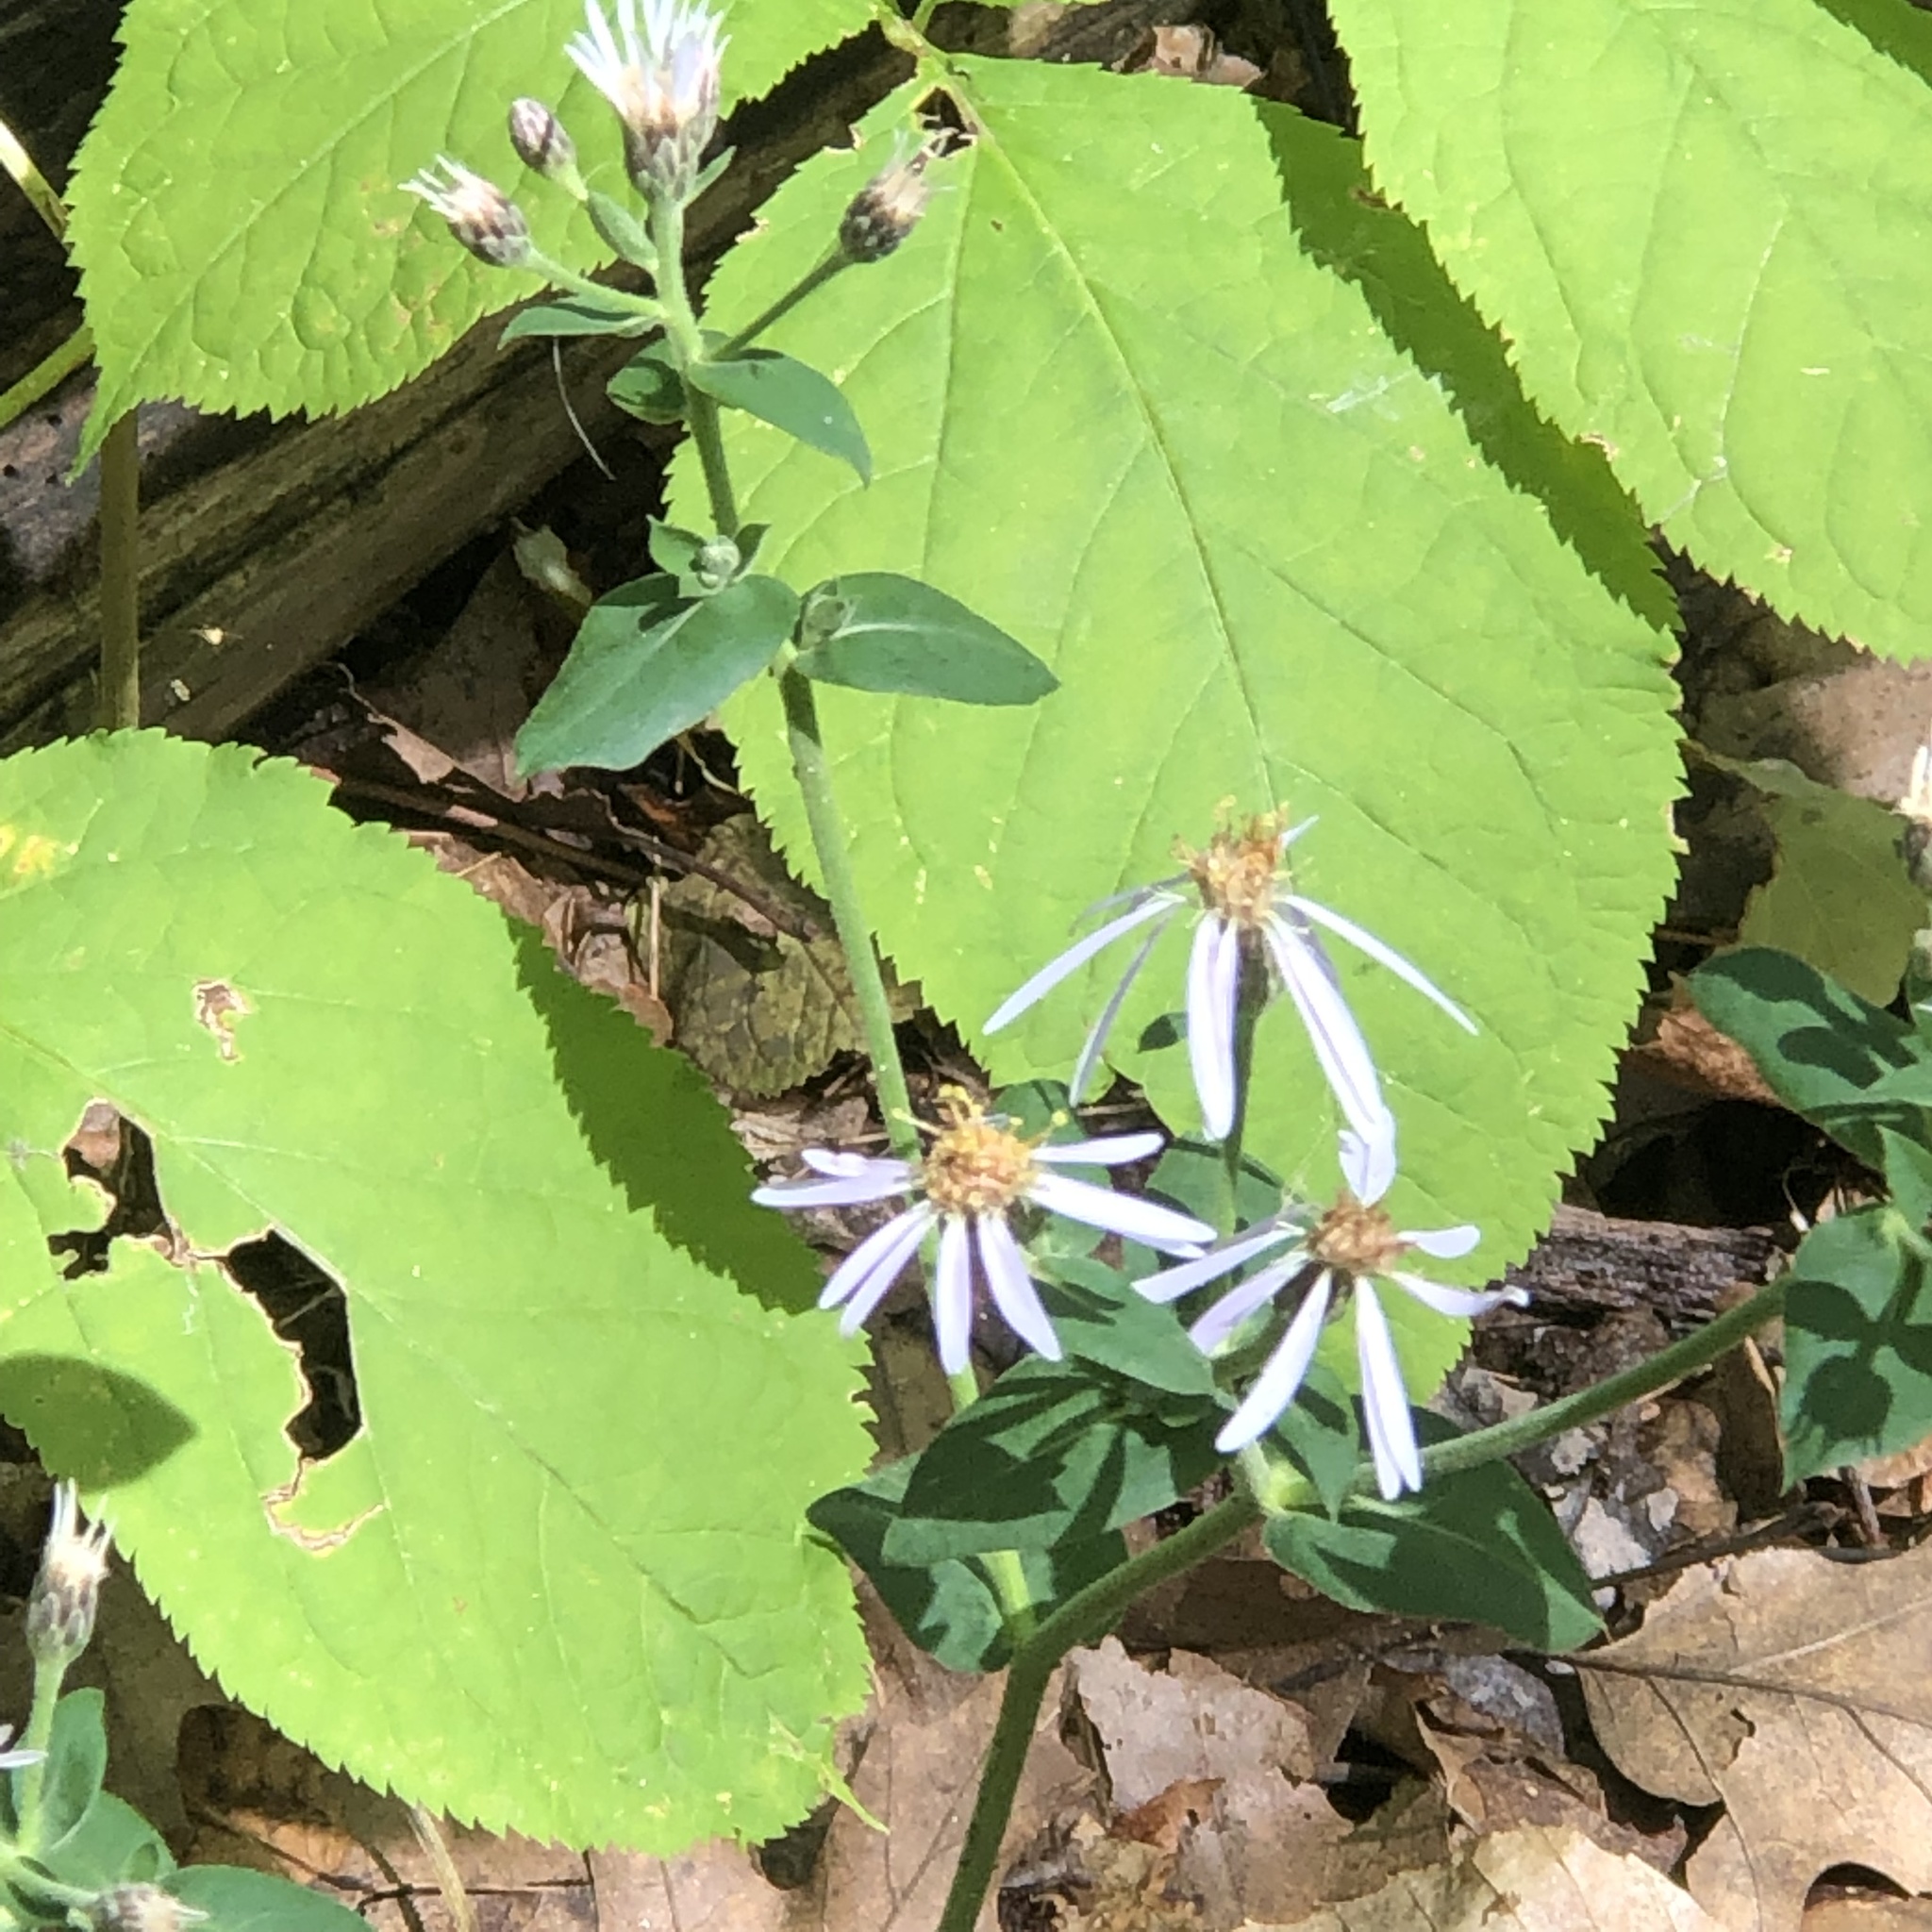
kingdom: Plantae
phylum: Tracheophyta
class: Magnoliopsida
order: Asterales
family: Asteraceae
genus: Eurybia
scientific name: Eurybia macrophylla
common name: Big-leaved aster
